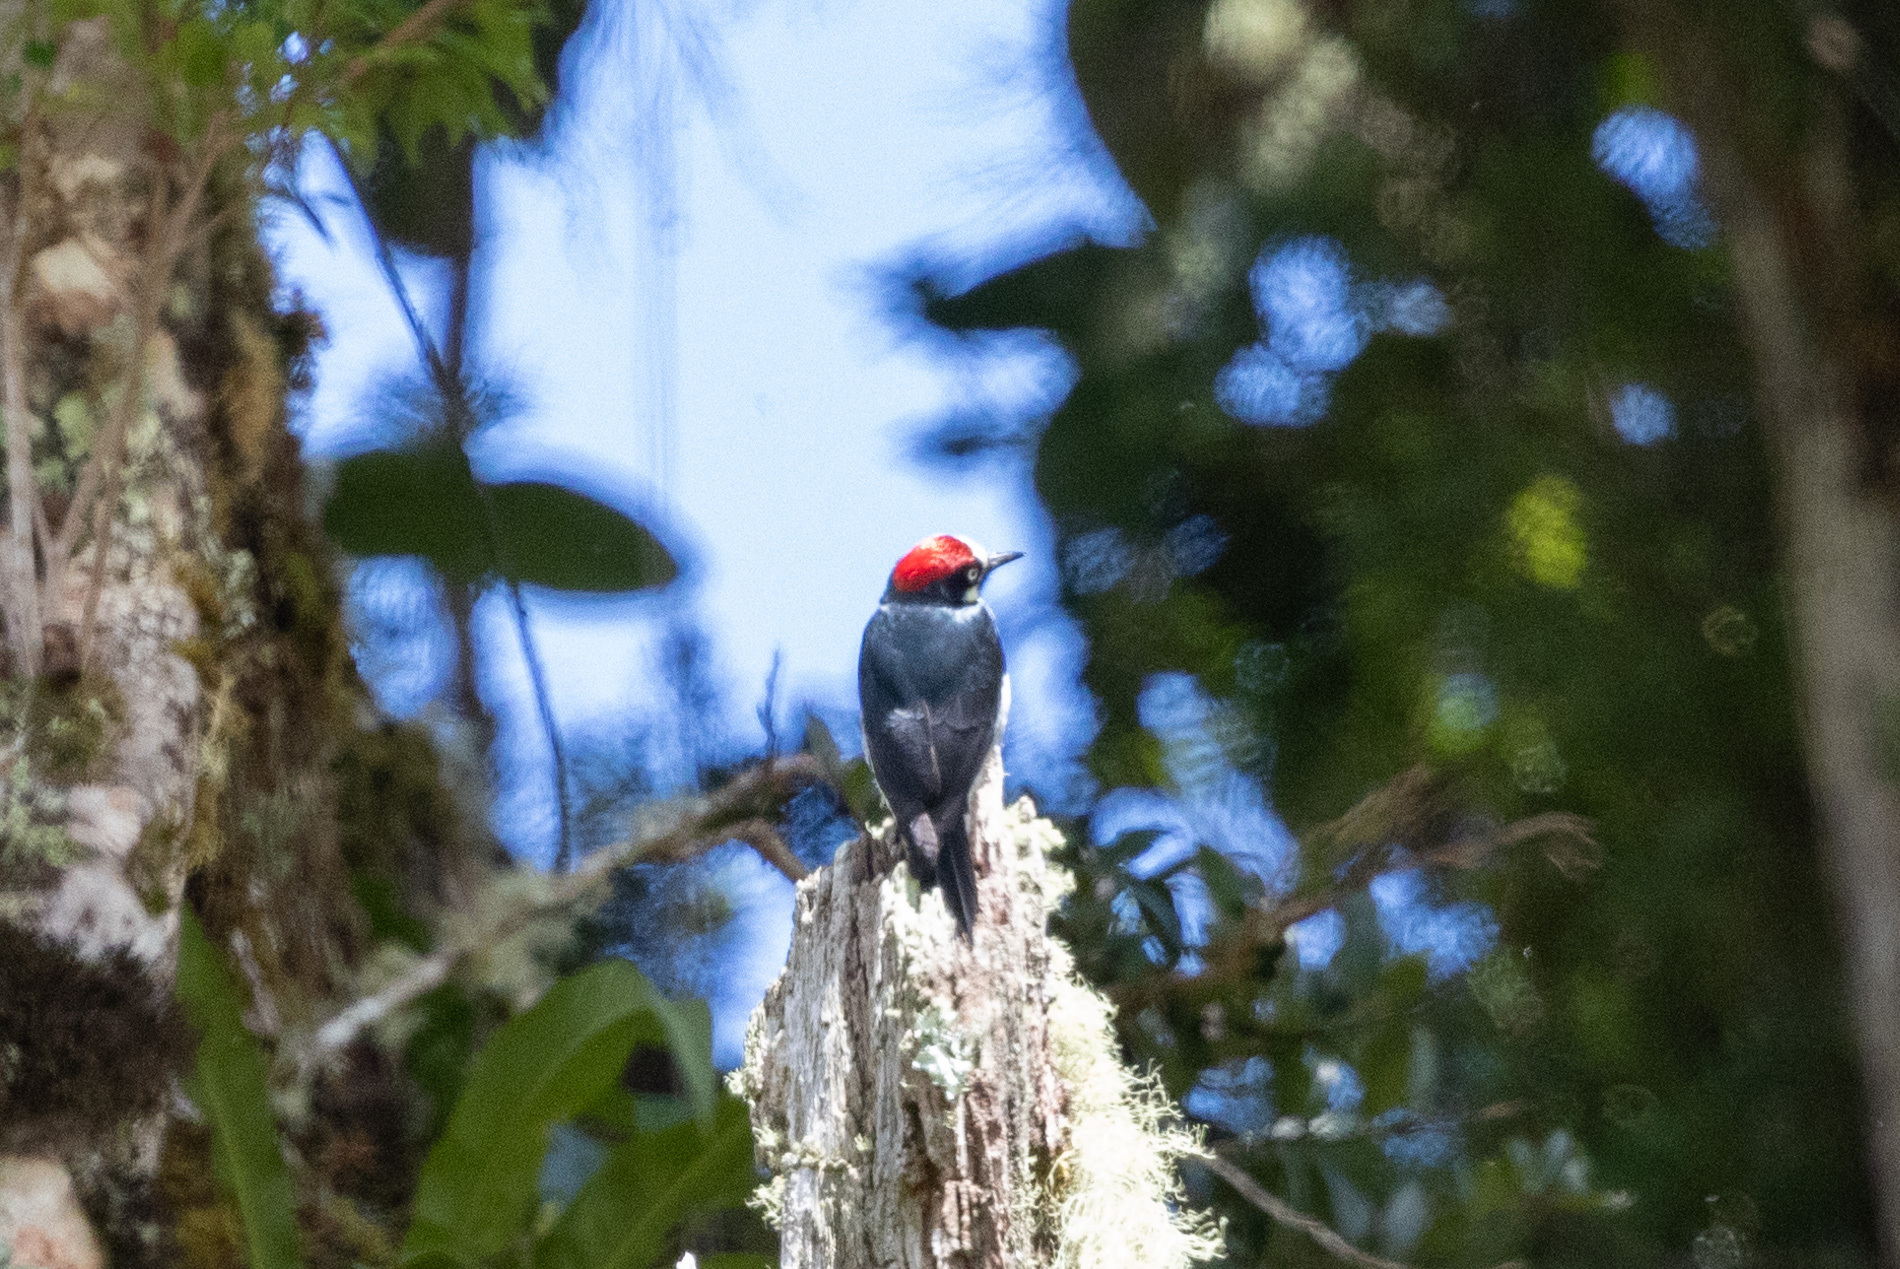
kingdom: Animalia
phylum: Chordata
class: Aves
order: Piciformes
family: Picidae
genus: Melanerpes
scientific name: Melanerpes formicivorus
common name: Acorn woodpecker
